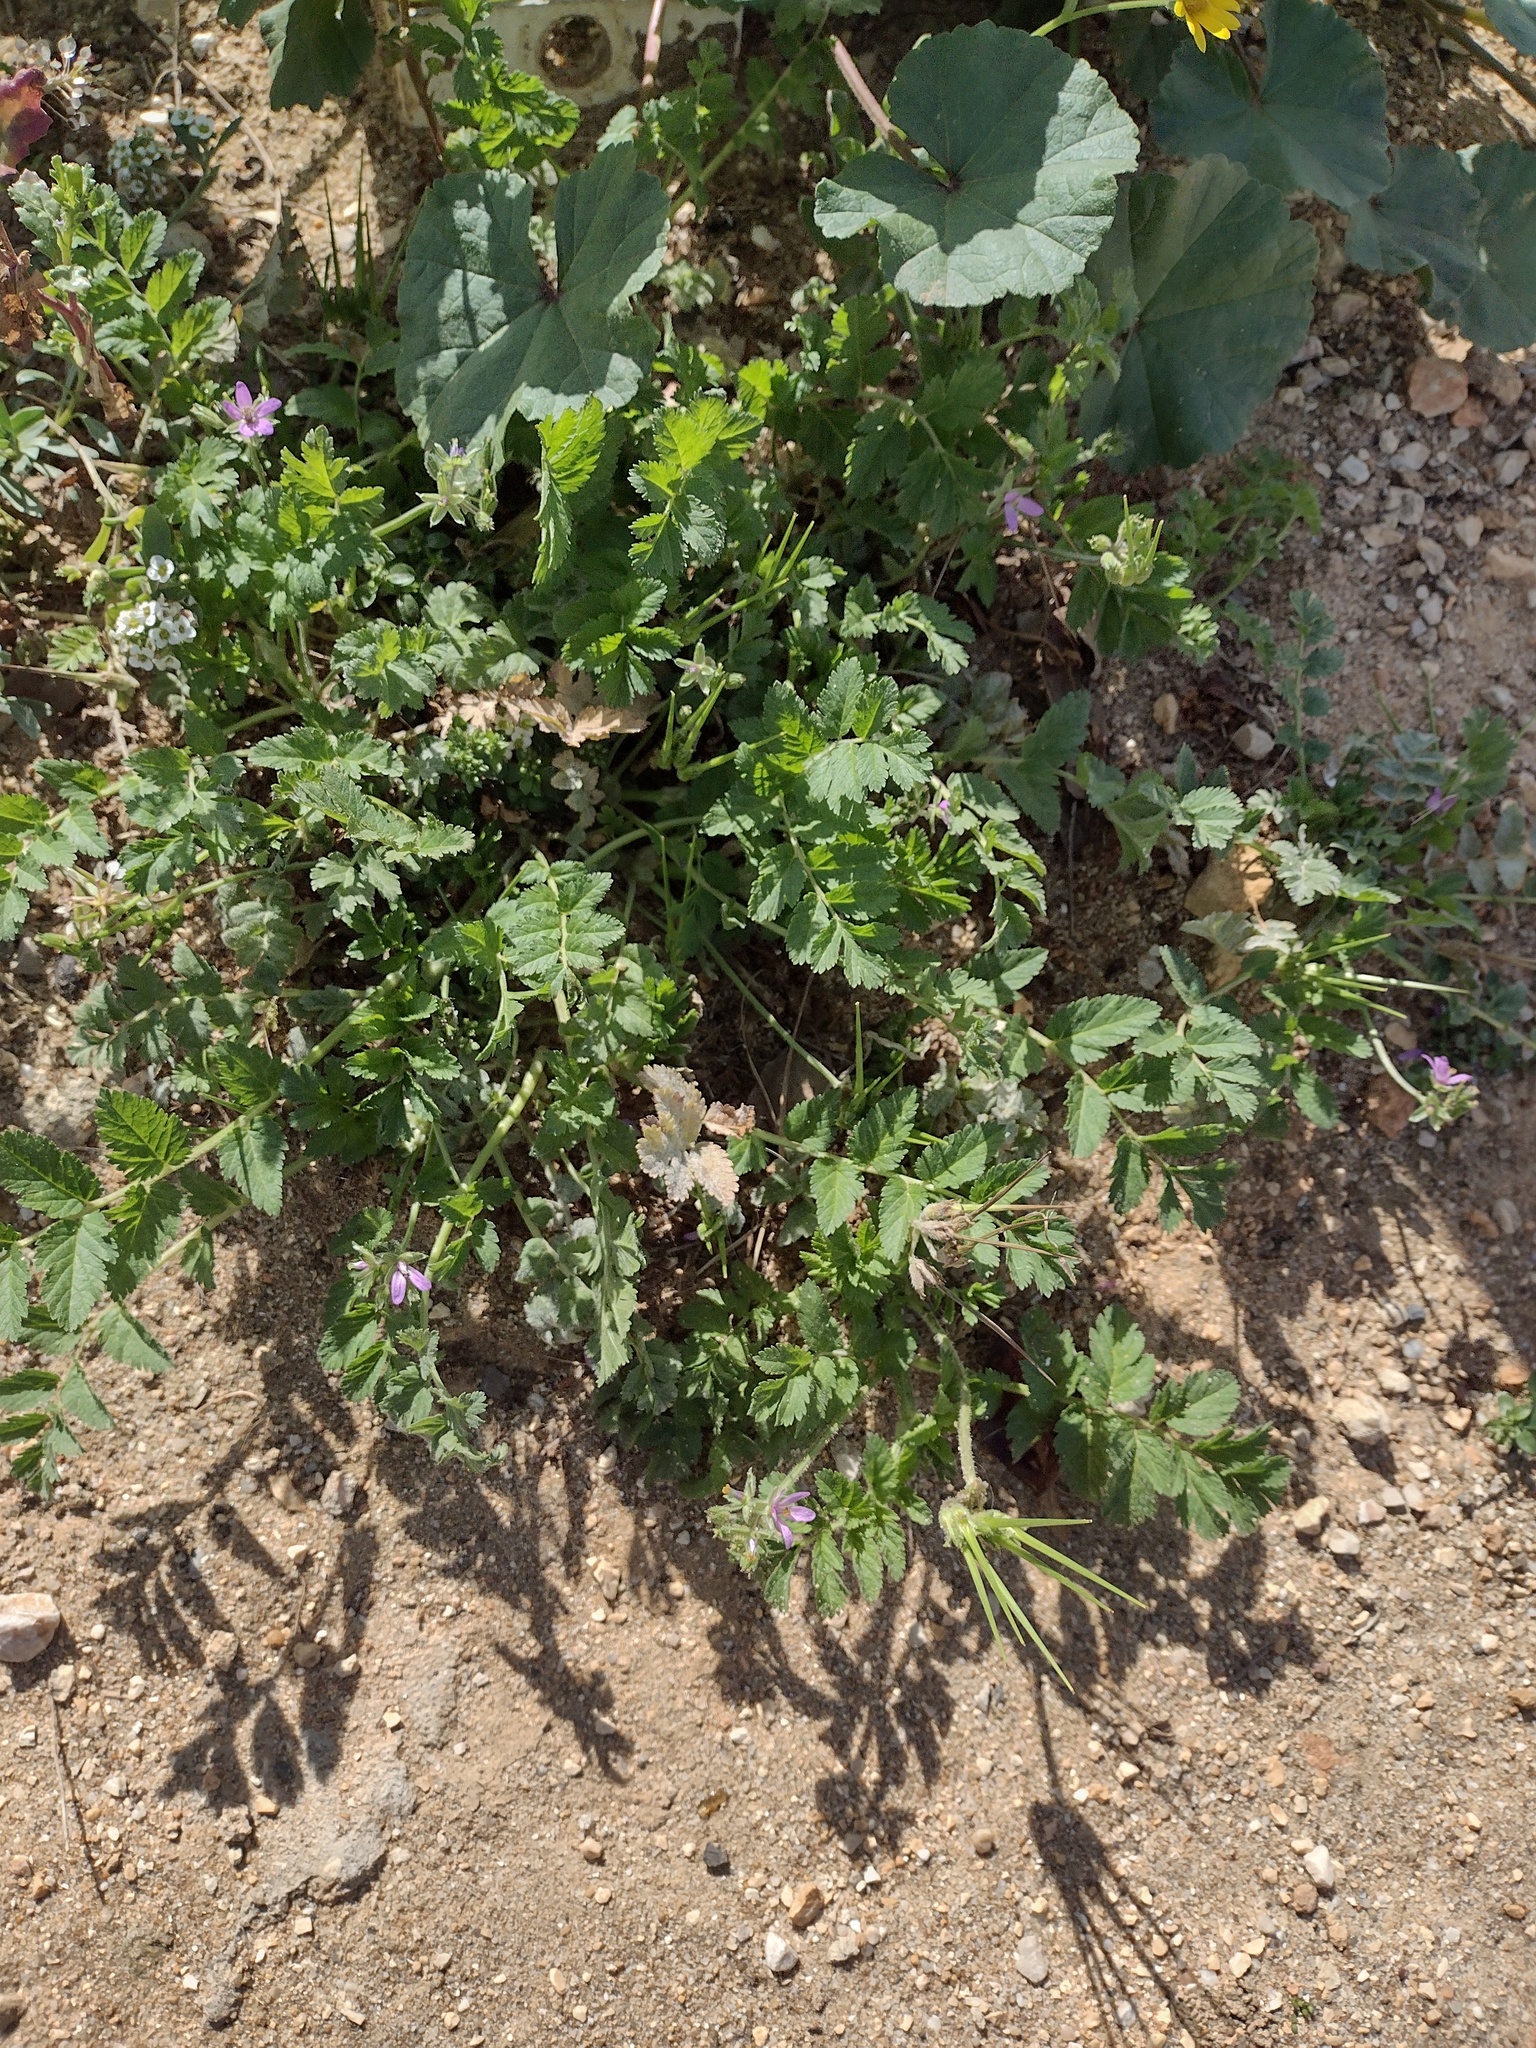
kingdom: Plantae
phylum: Tracheophyta
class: Magnoliopsida
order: Geraniales
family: Geraniaceae
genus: Erodium
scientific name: Erodium moschatum
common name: Musk stork's-bill
